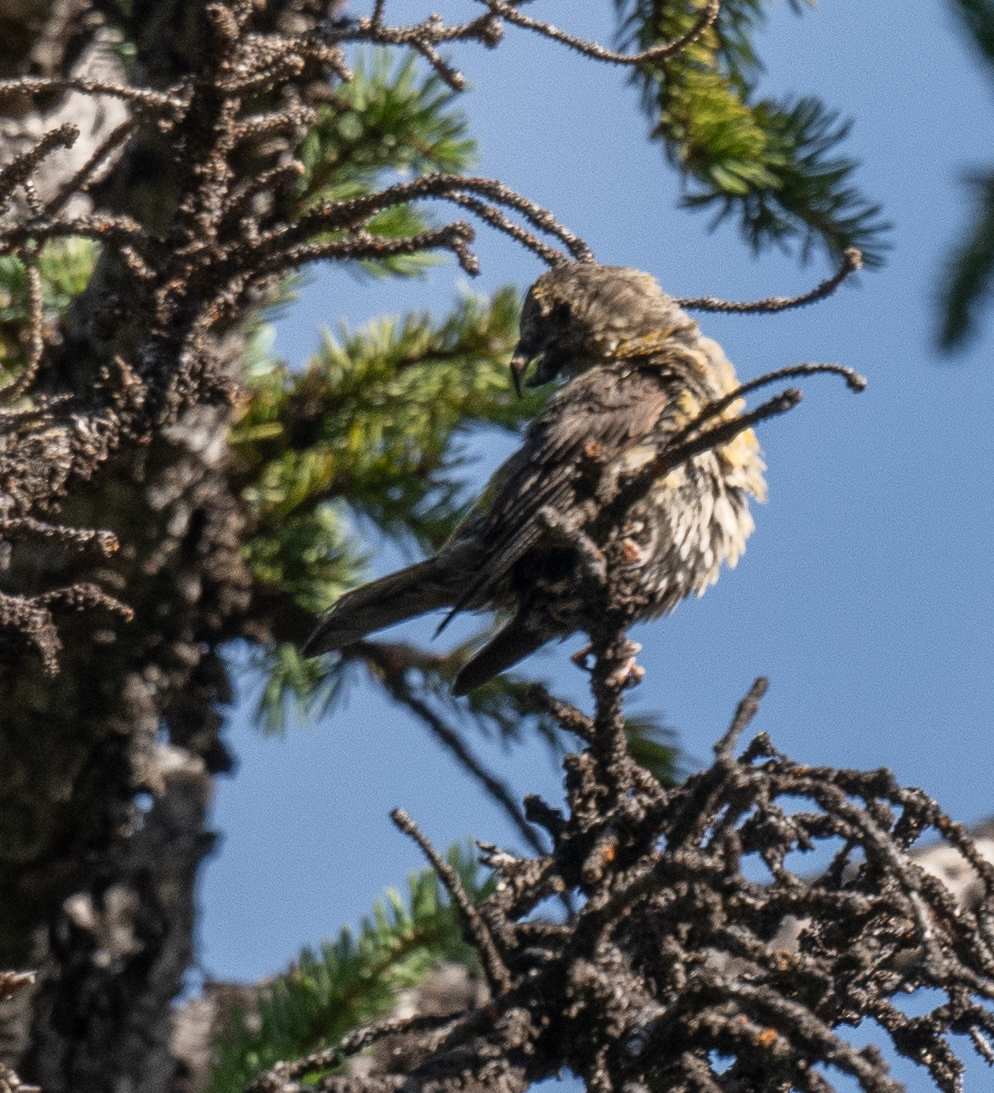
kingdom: Animalia
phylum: Chordata
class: Aves
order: Passeriformes
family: Fringillidae
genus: Loxia
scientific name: Loxia curvirostra
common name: Red crossbill
